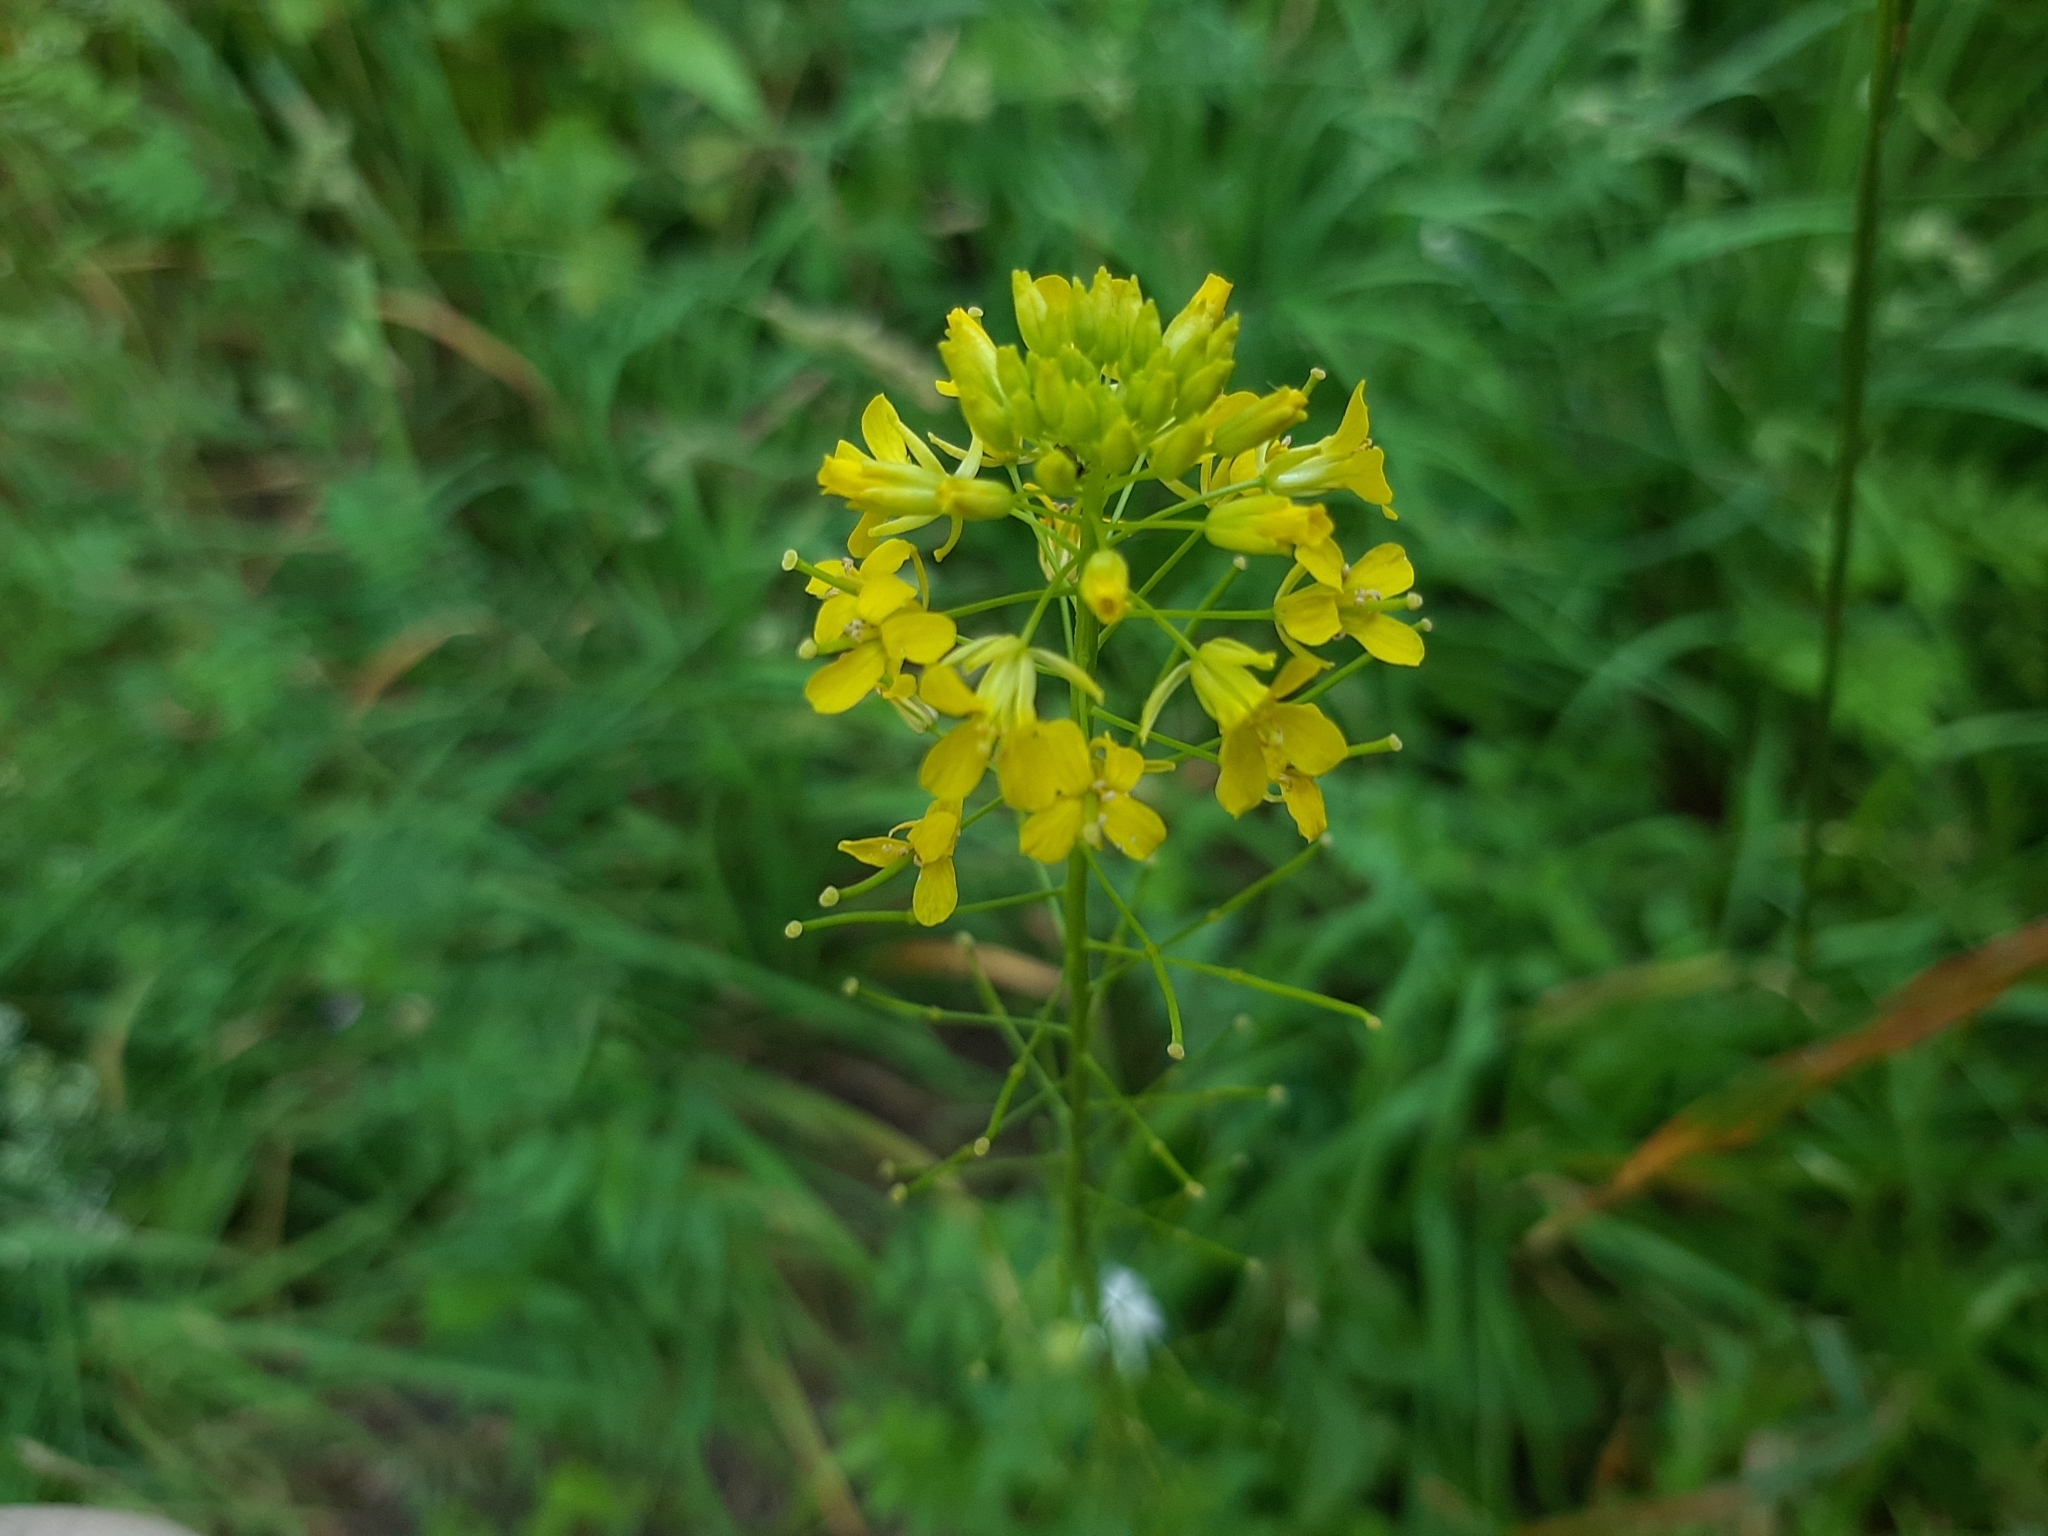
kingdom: Plantae
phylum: Tracheophyta
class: Magnoliopsida
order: Brassicales
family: Brassicaceae
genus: Sisymbrium
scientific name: Sisymbrium loeselii
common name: False london-rocket
